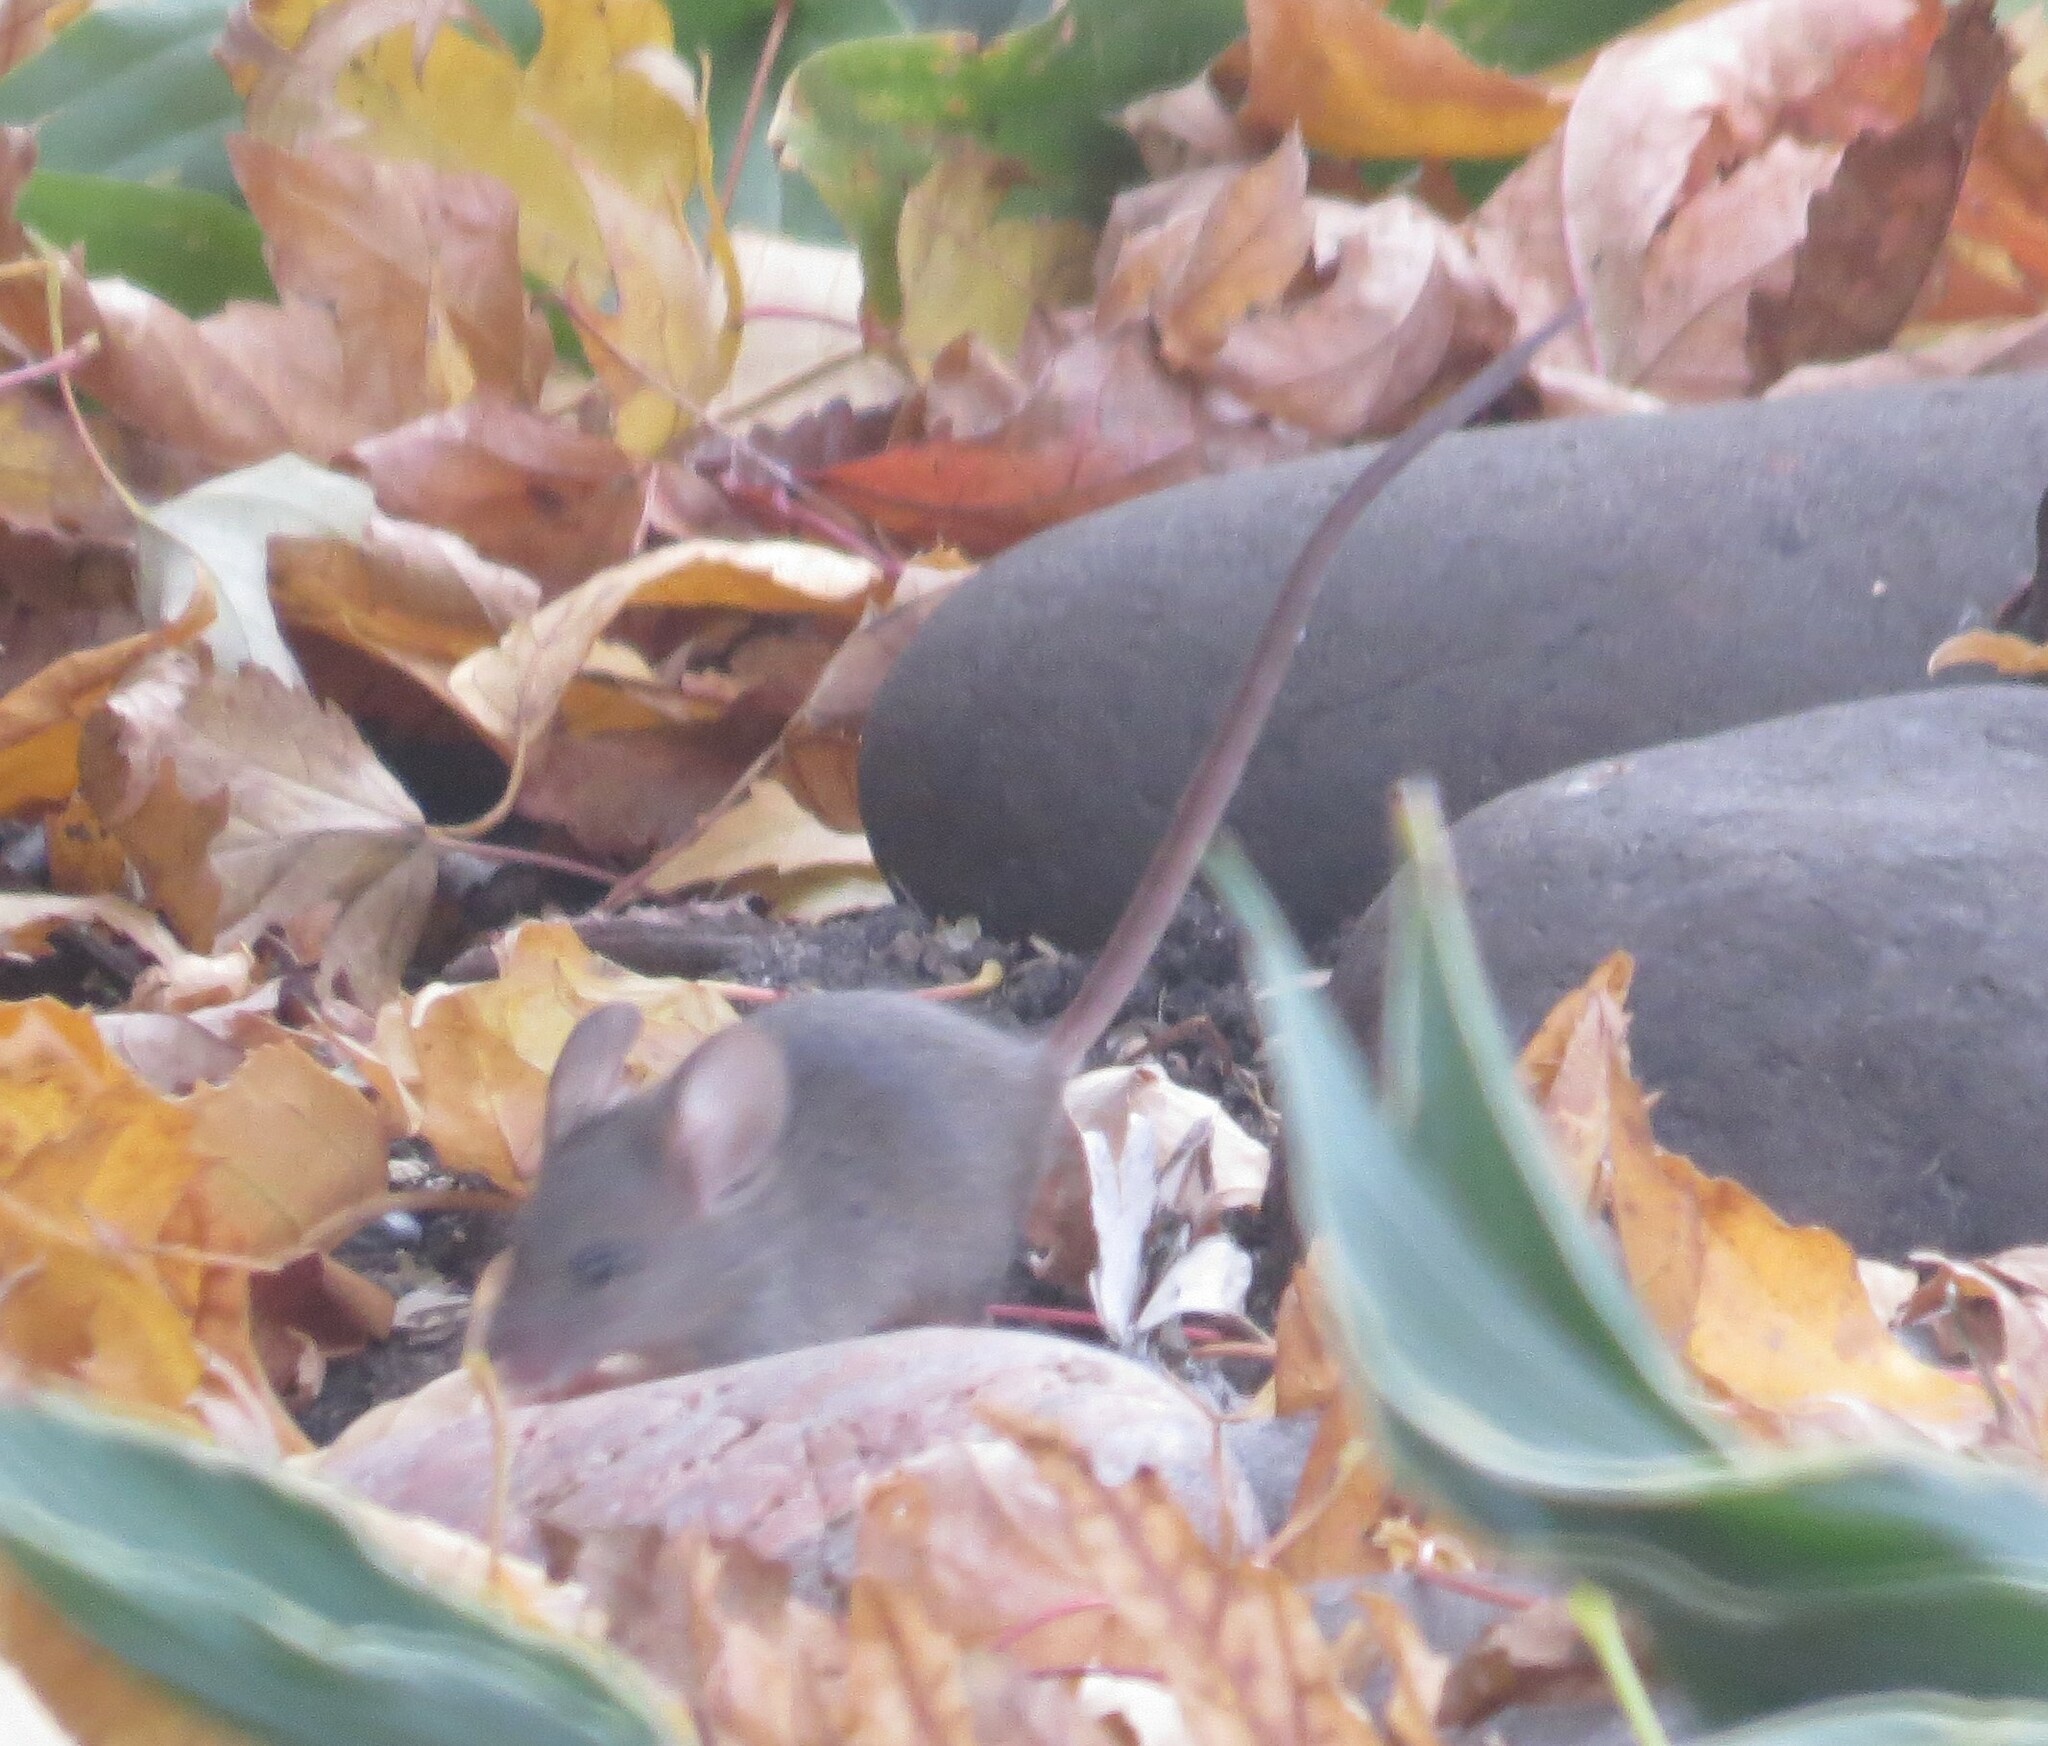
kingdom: Animalia
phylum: Chordata
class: Mammalia
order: Rodentia
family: Muridae
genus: Mus
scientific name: Mus musculus
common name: House mouse
